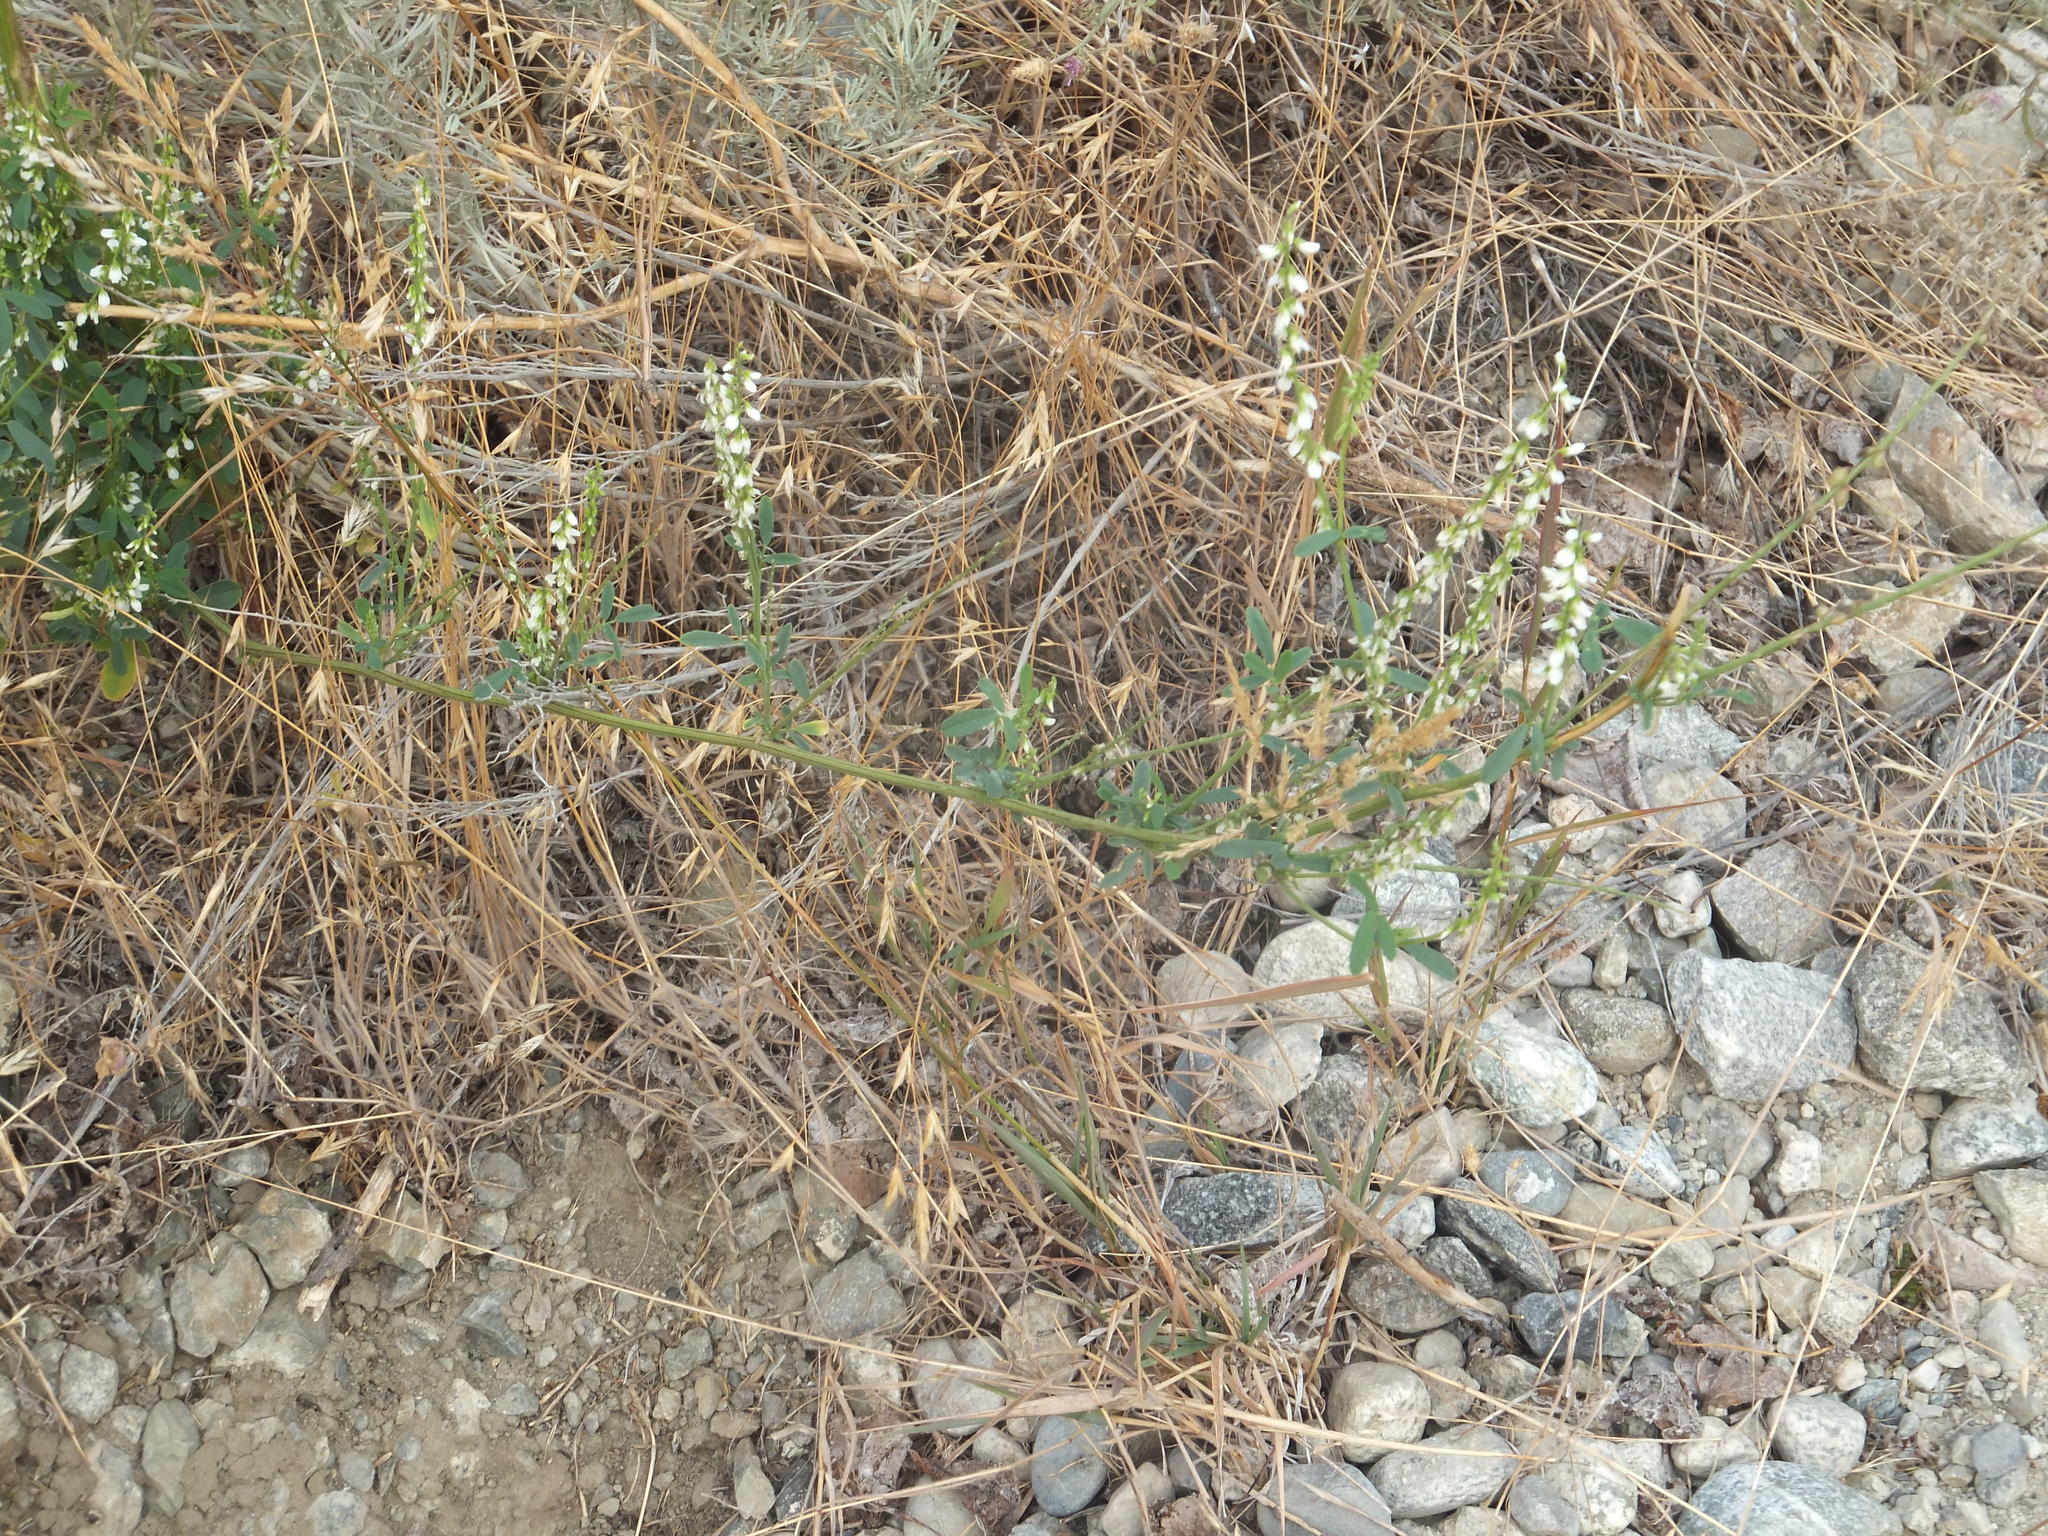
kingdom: Plantae
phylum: Tracheophyta
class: Magnoliopsida
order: Fabales
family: Fabaceae
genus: Melilotus
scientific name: Melilotus albus
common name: White melilot
